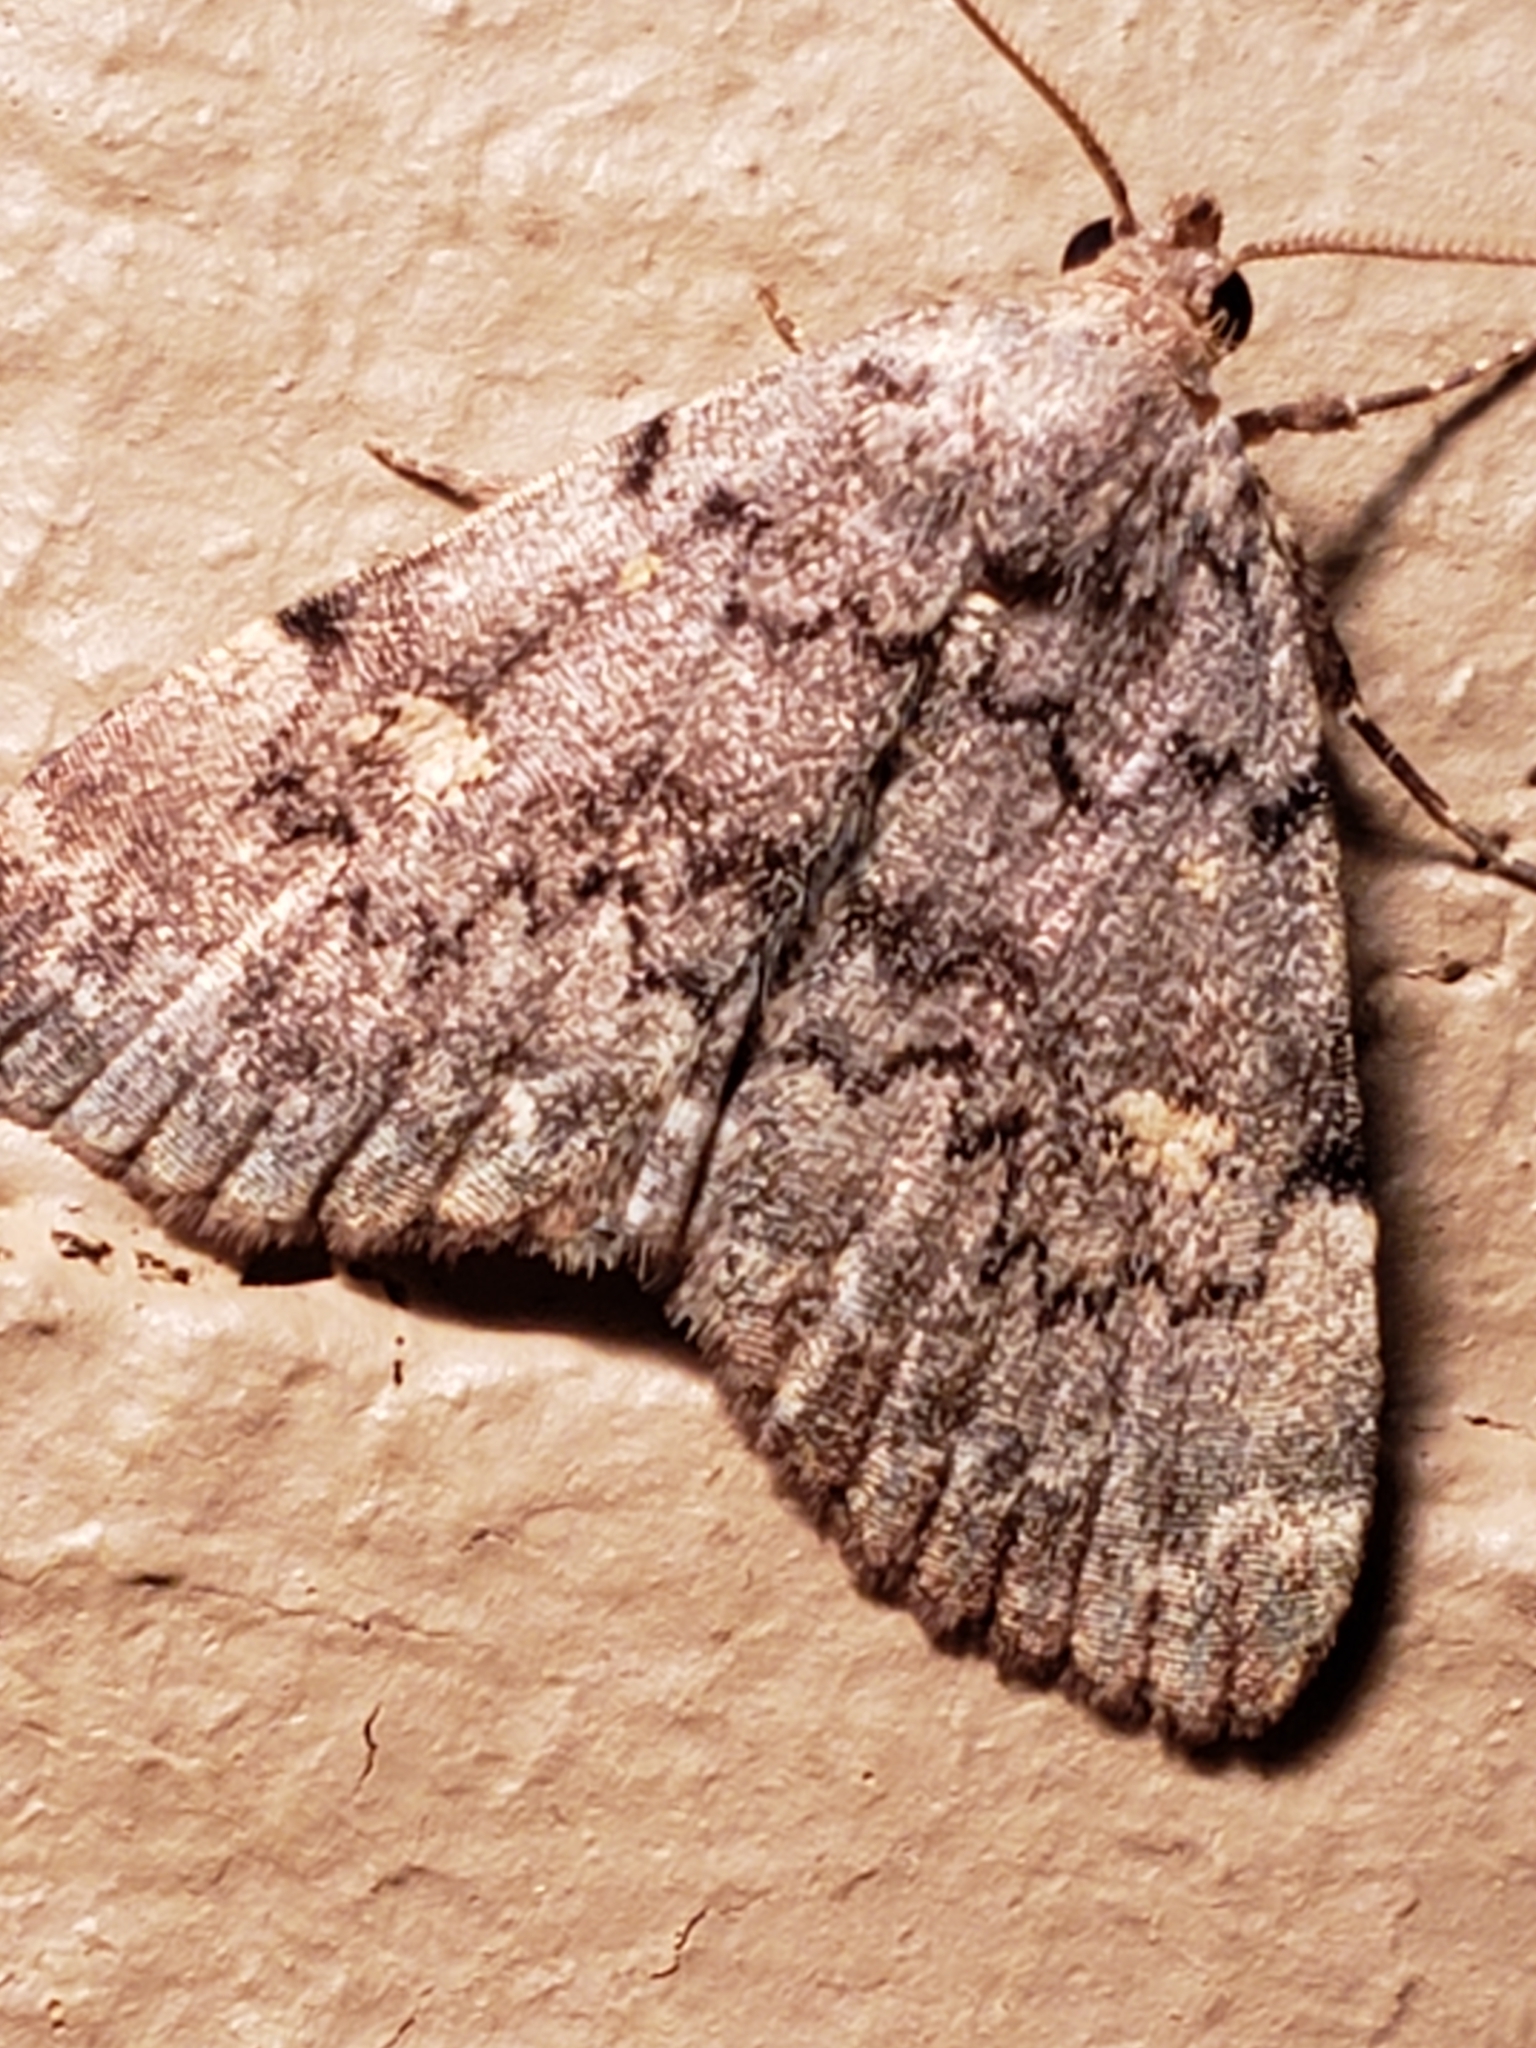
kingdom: Animalia
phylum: Arthropoda
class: Insecta
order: Lepidoptera
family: Erebidae
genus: Idia
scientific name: Idia aemula
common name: Common idia moth
